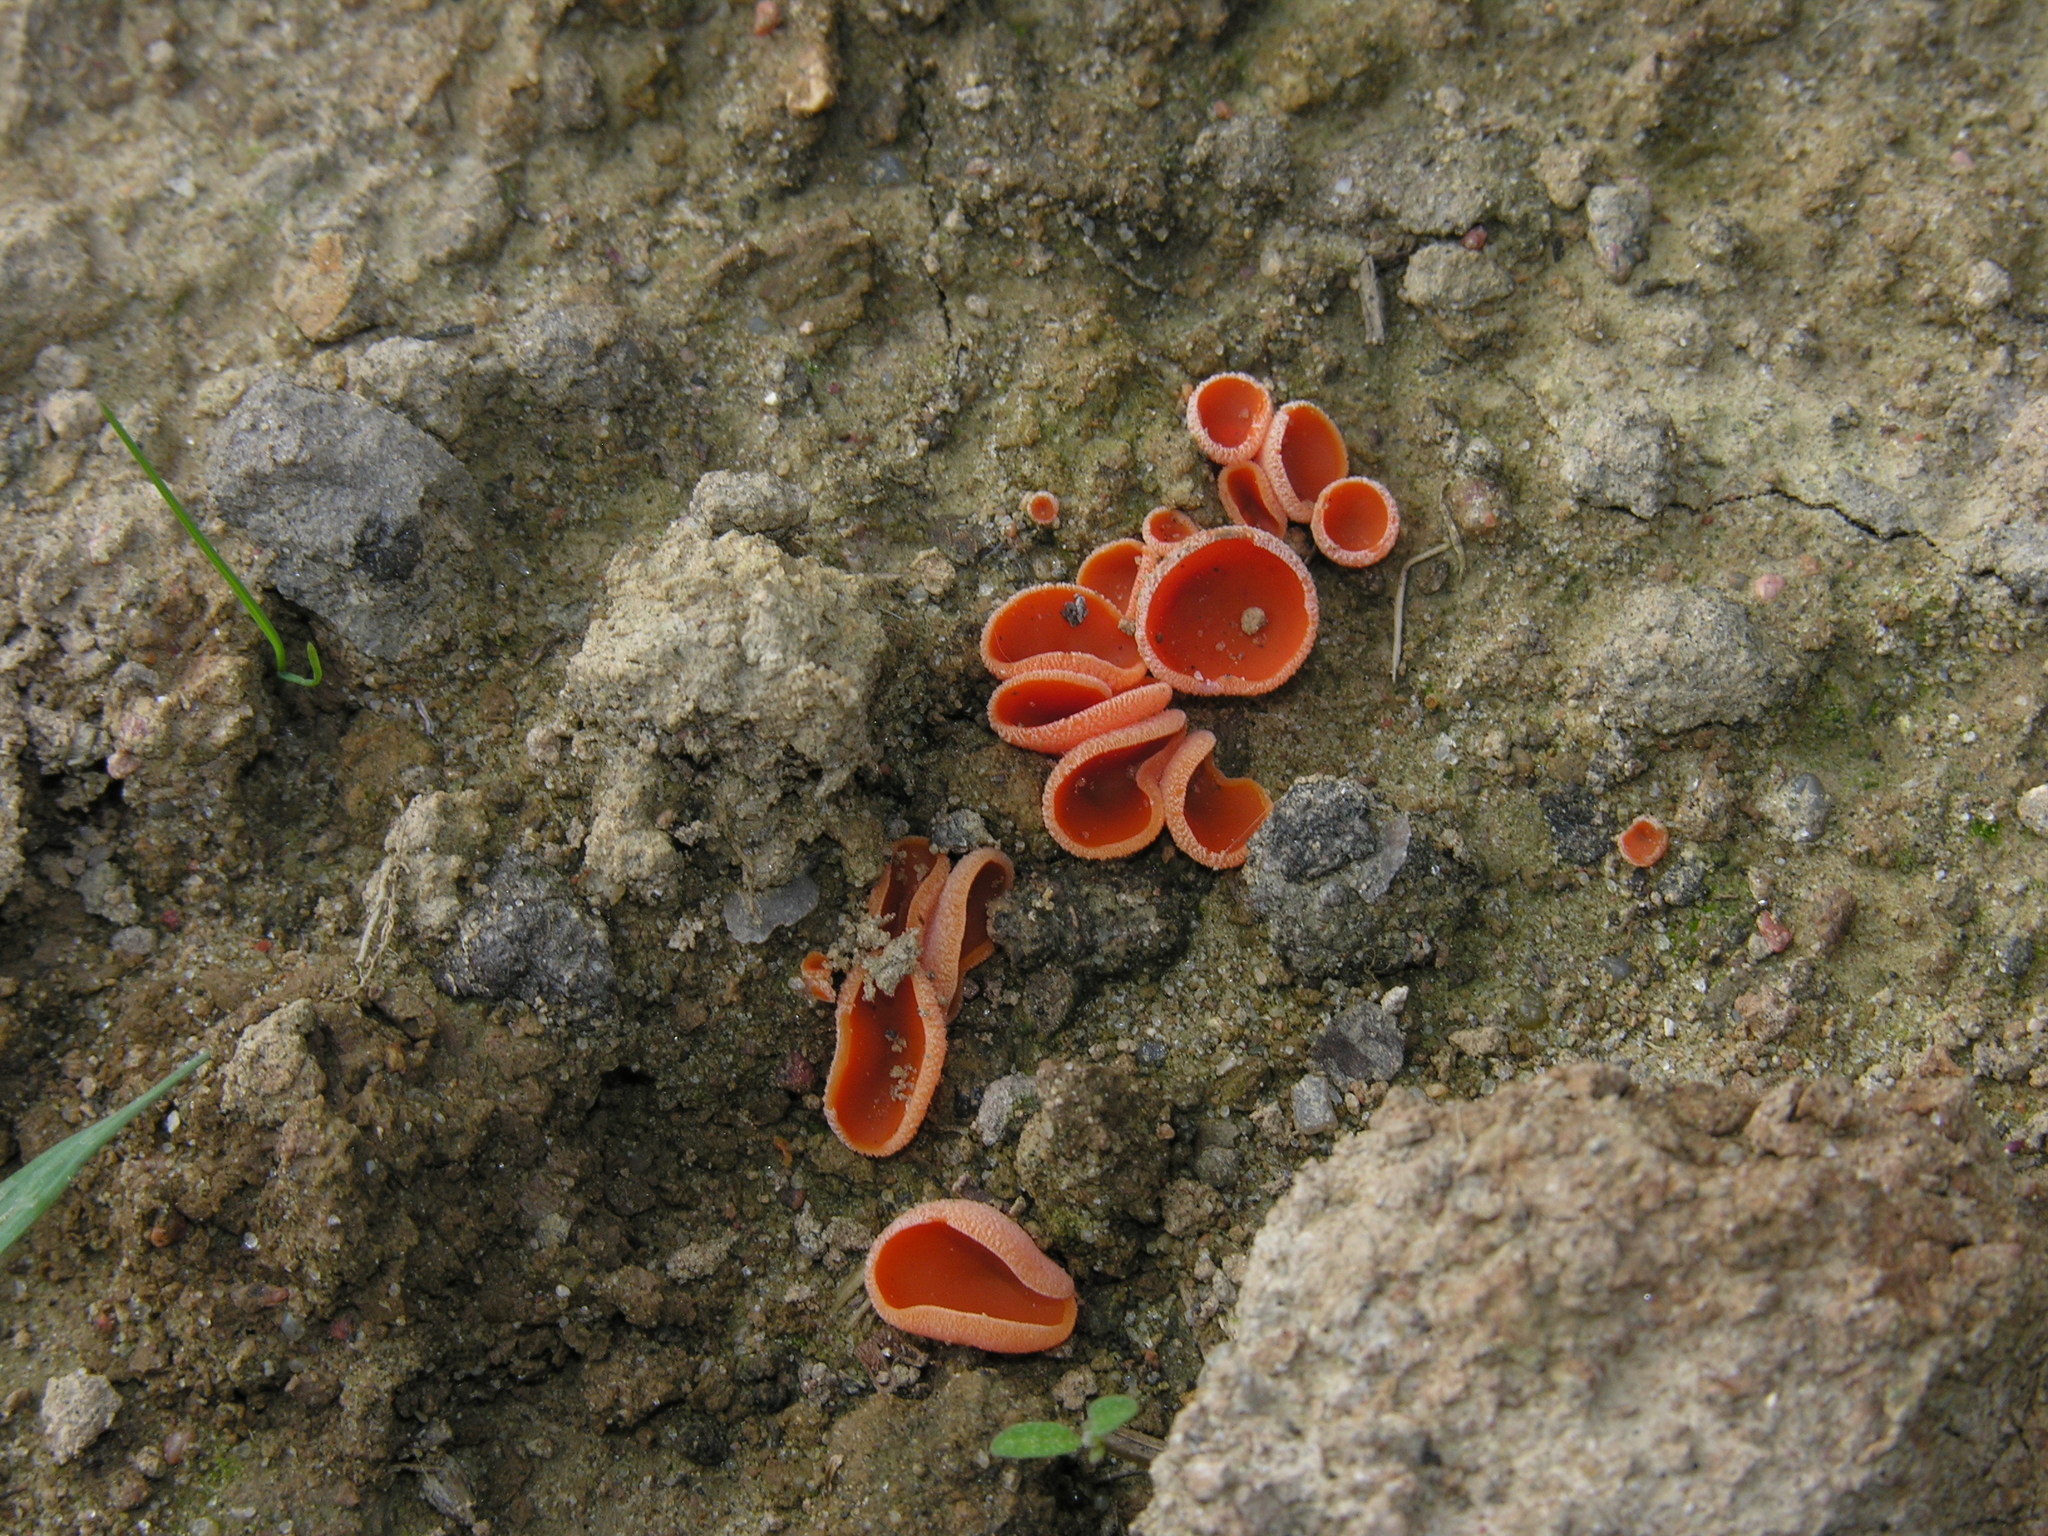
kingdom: Fungi
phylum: Ascomycota
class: Pezizomycetes
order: Pezizales
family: Pyronemataceae
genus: Aleuria
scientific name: Aleuria aurantia
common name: Orange peel fungus
